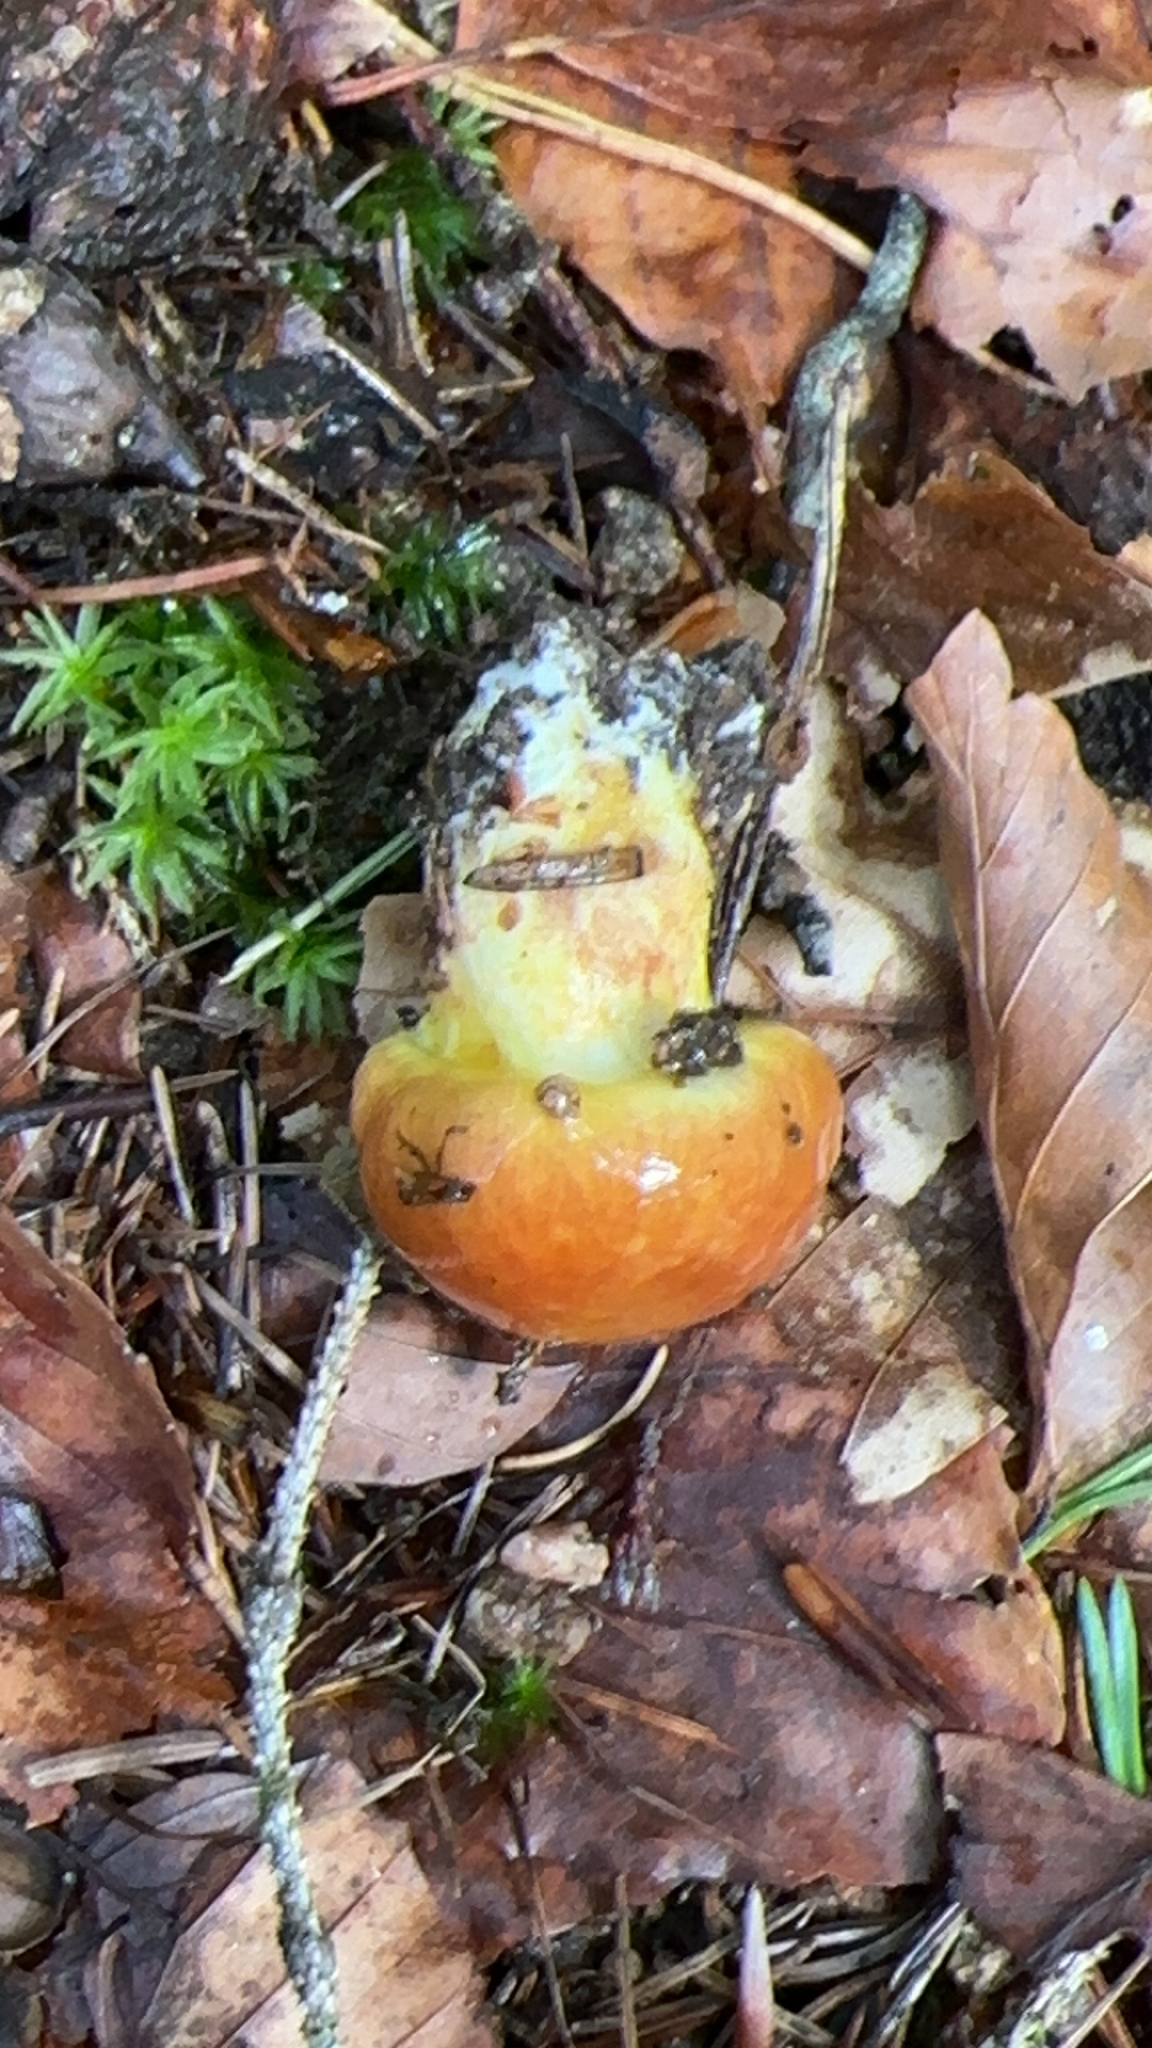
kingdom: Fungi
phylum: Basidiomycota
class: Agaricomycetes
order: Boletales
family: Suillaceae
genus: Suillus
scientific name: Suillus grevillei
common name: Larch bolete
